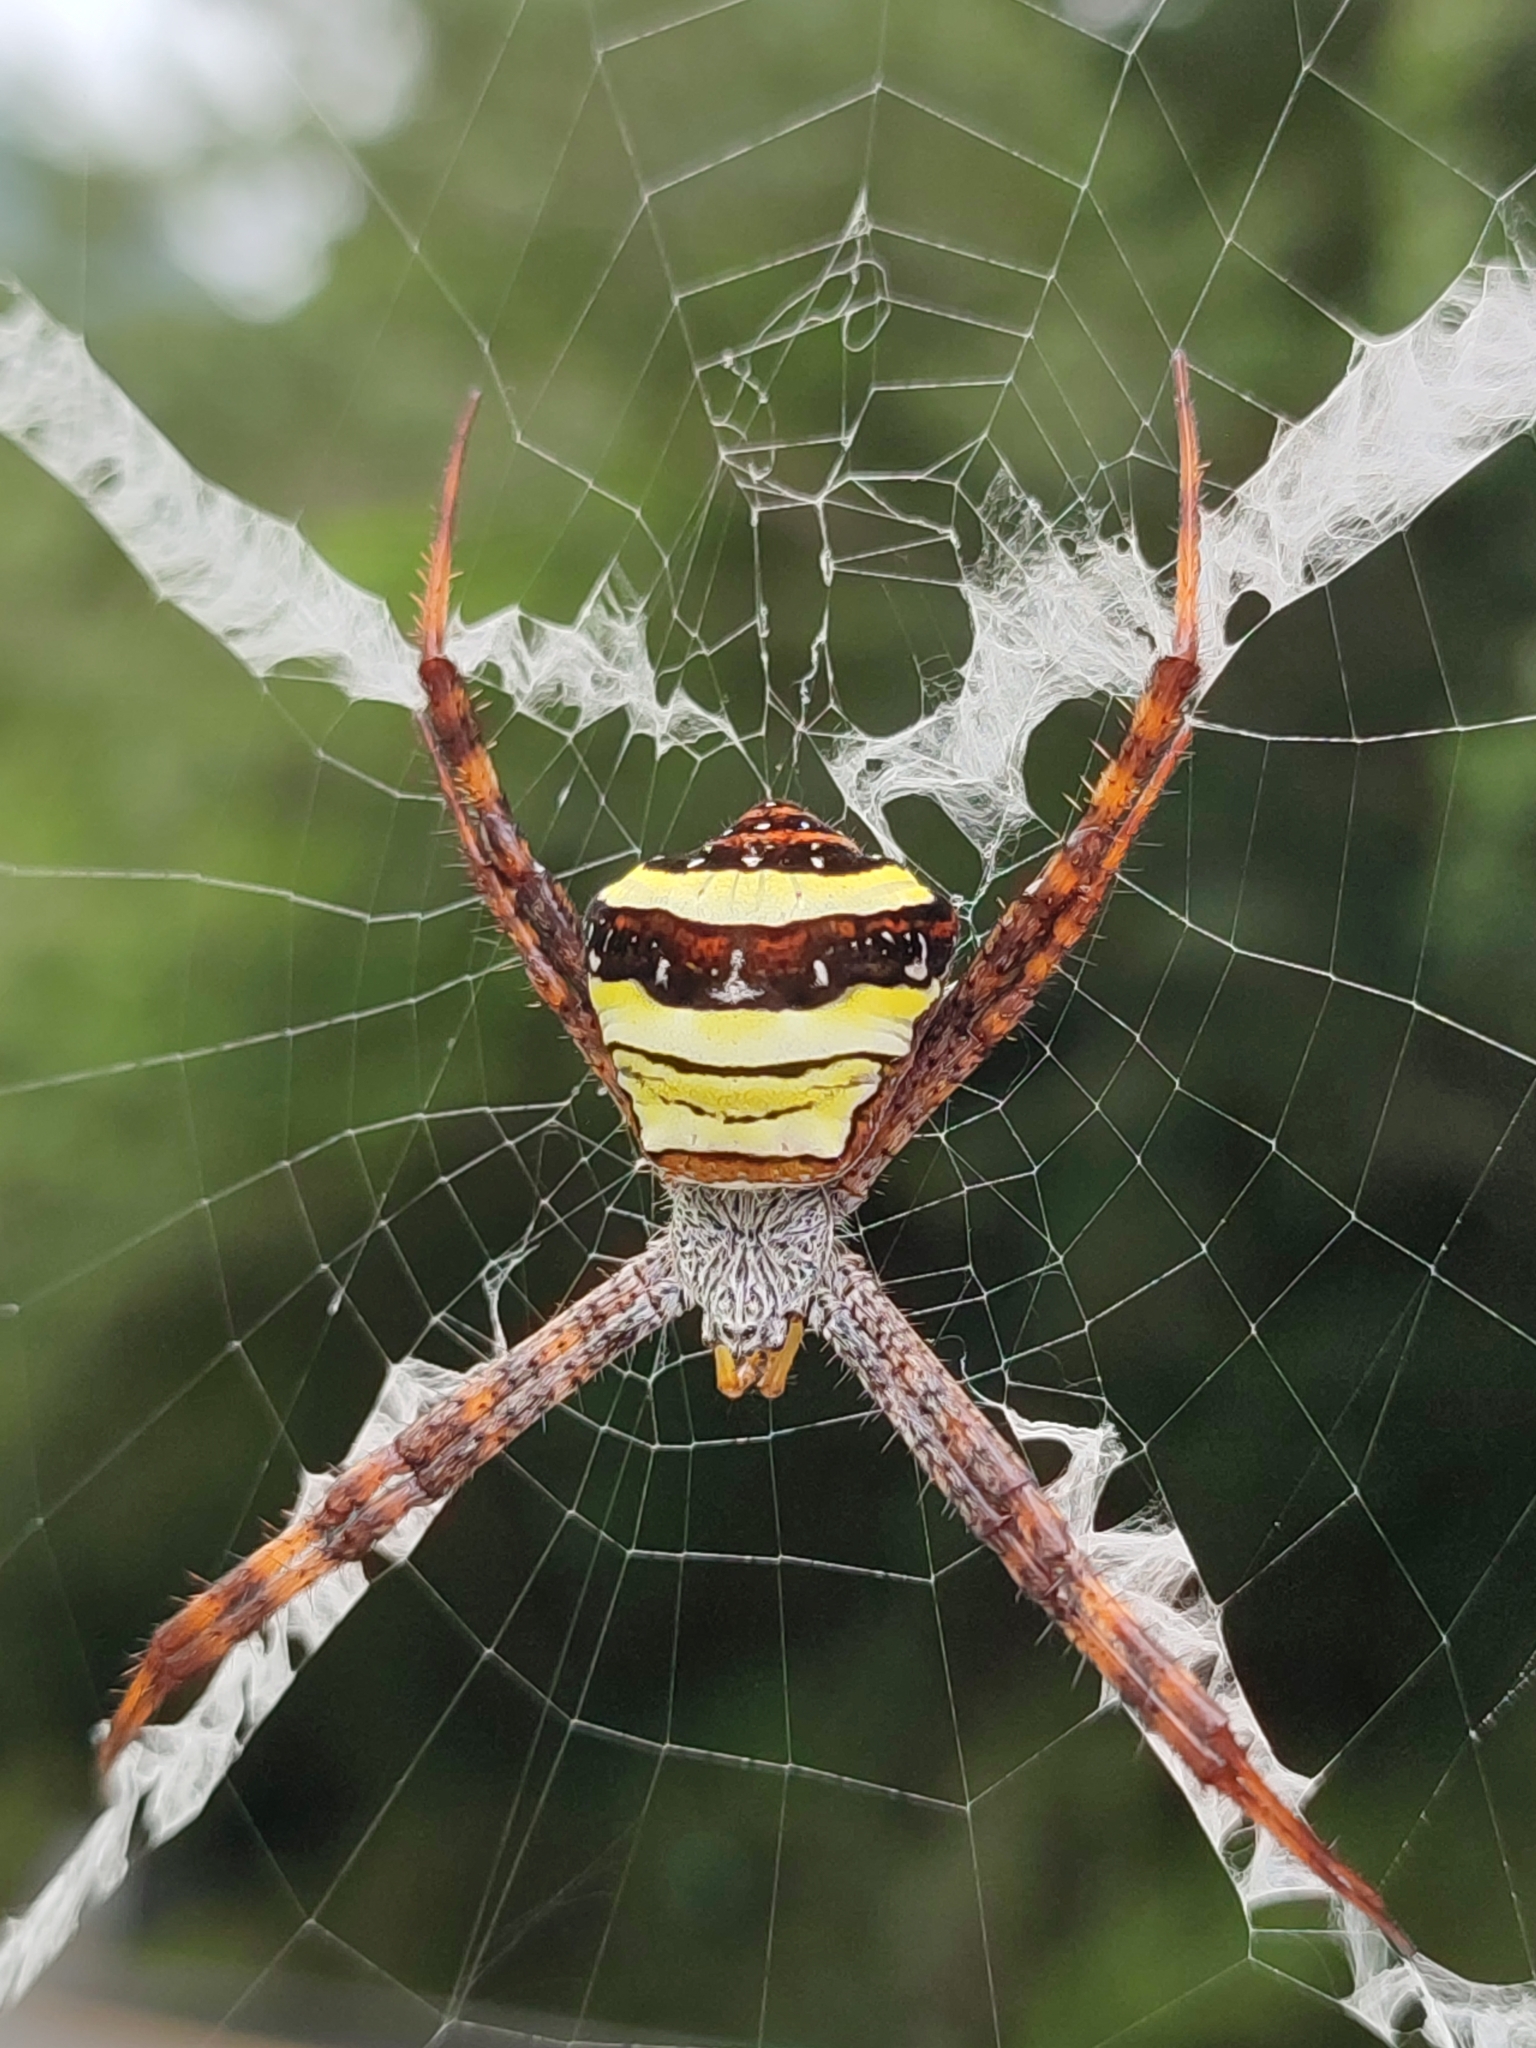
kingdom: Animalia
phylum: Arthropoda
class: Arachnida
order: Araneae
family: Araneidae
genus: Argiope
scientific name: Argiope aetheroides
